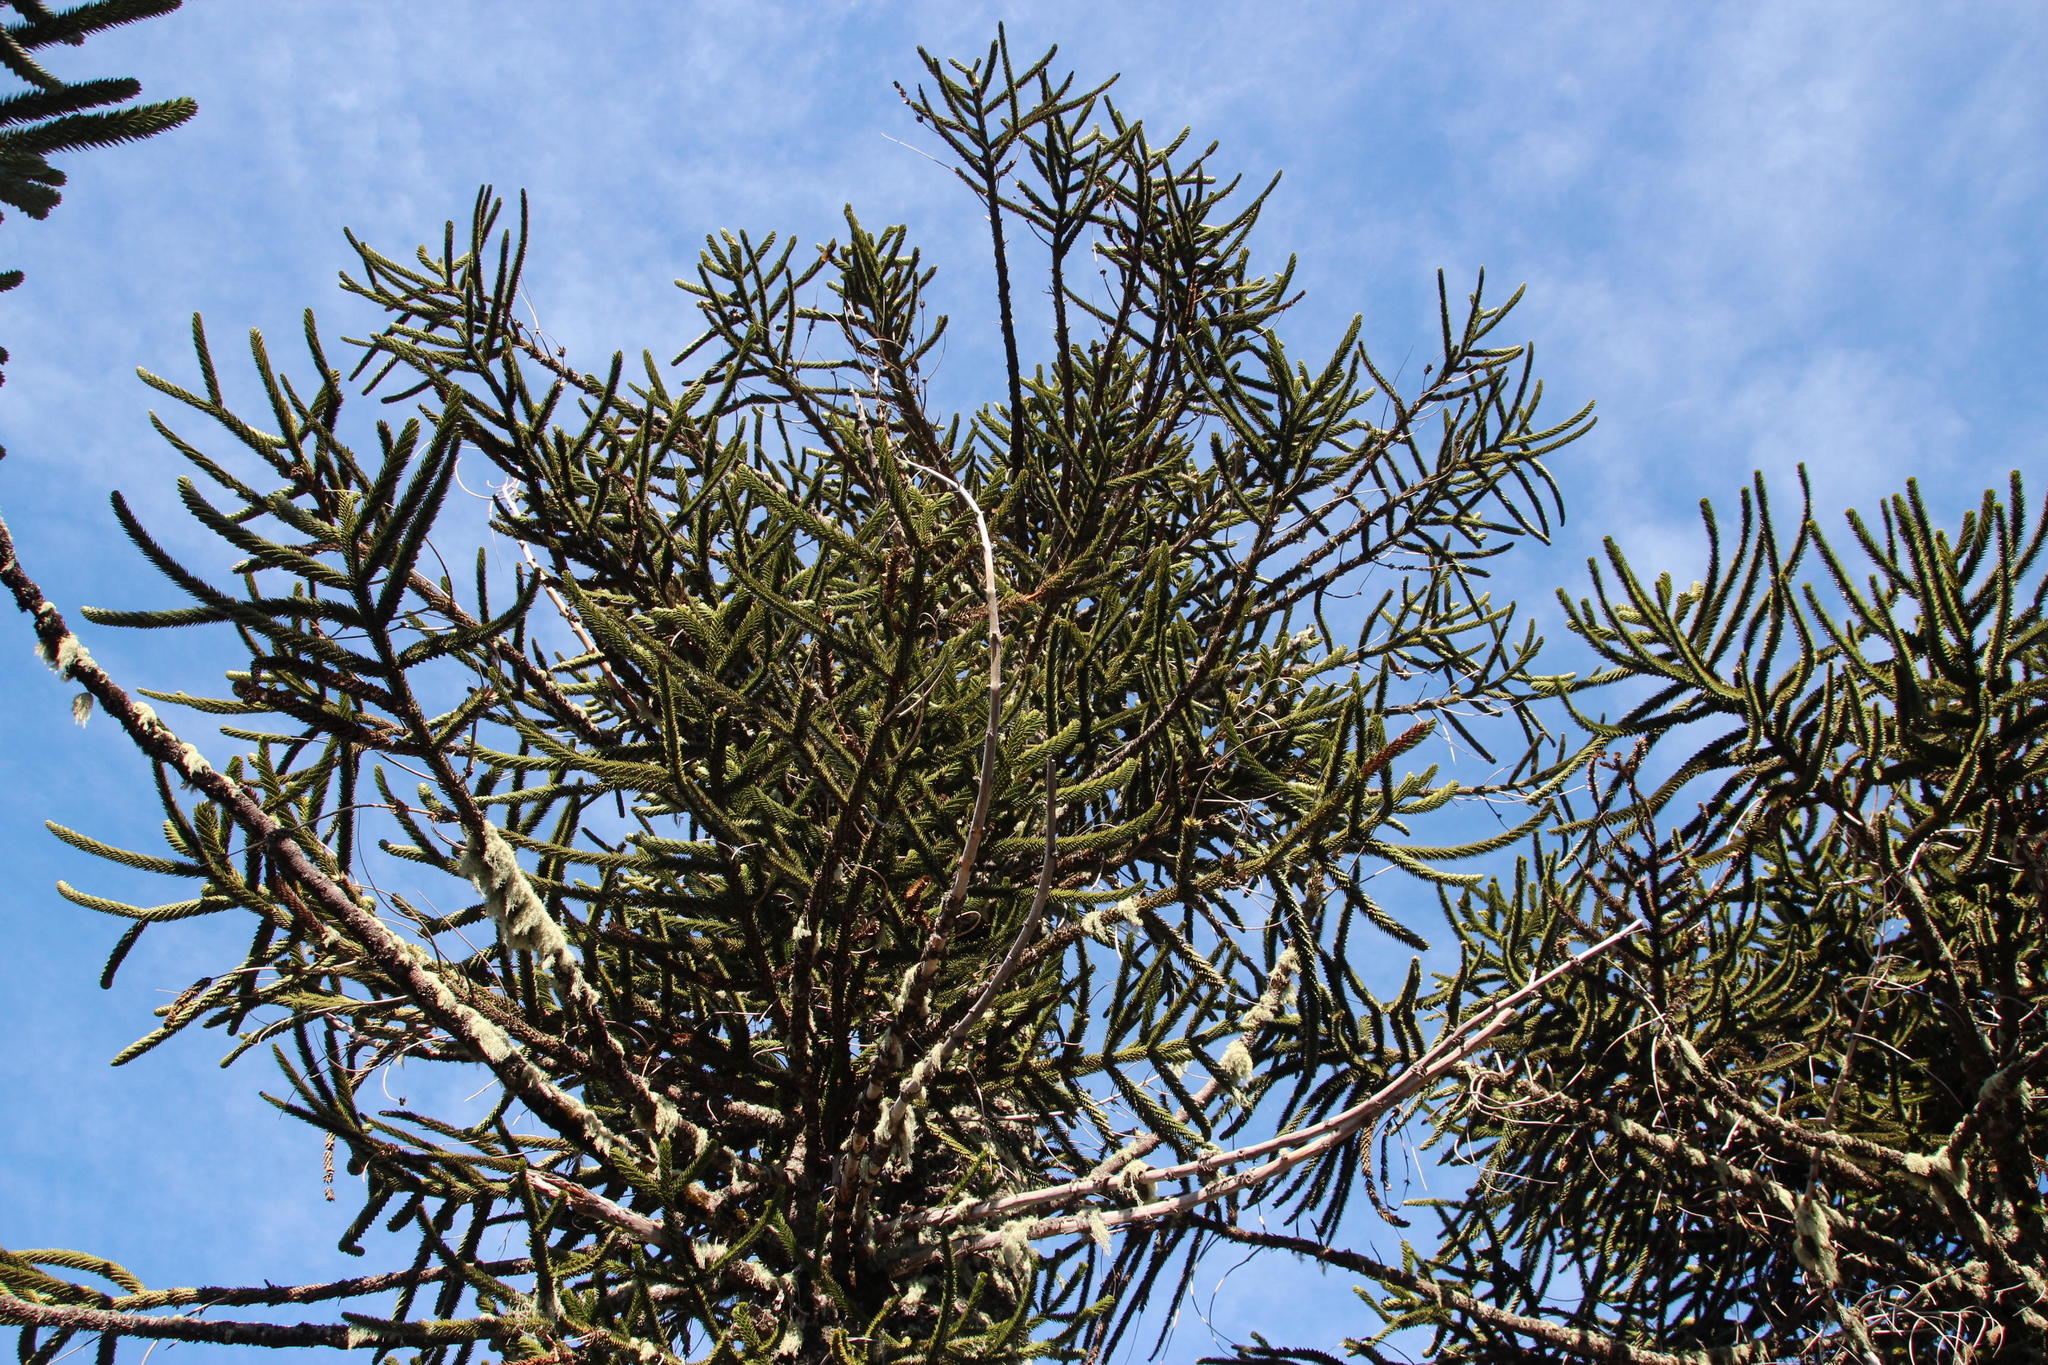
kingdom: Plantae
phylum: Tracheophyta
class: Pinopsida
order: Pinales
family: Araucariaceae
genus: Araucaria
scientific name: Araucaria araucana
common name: Monkey-puzzle
